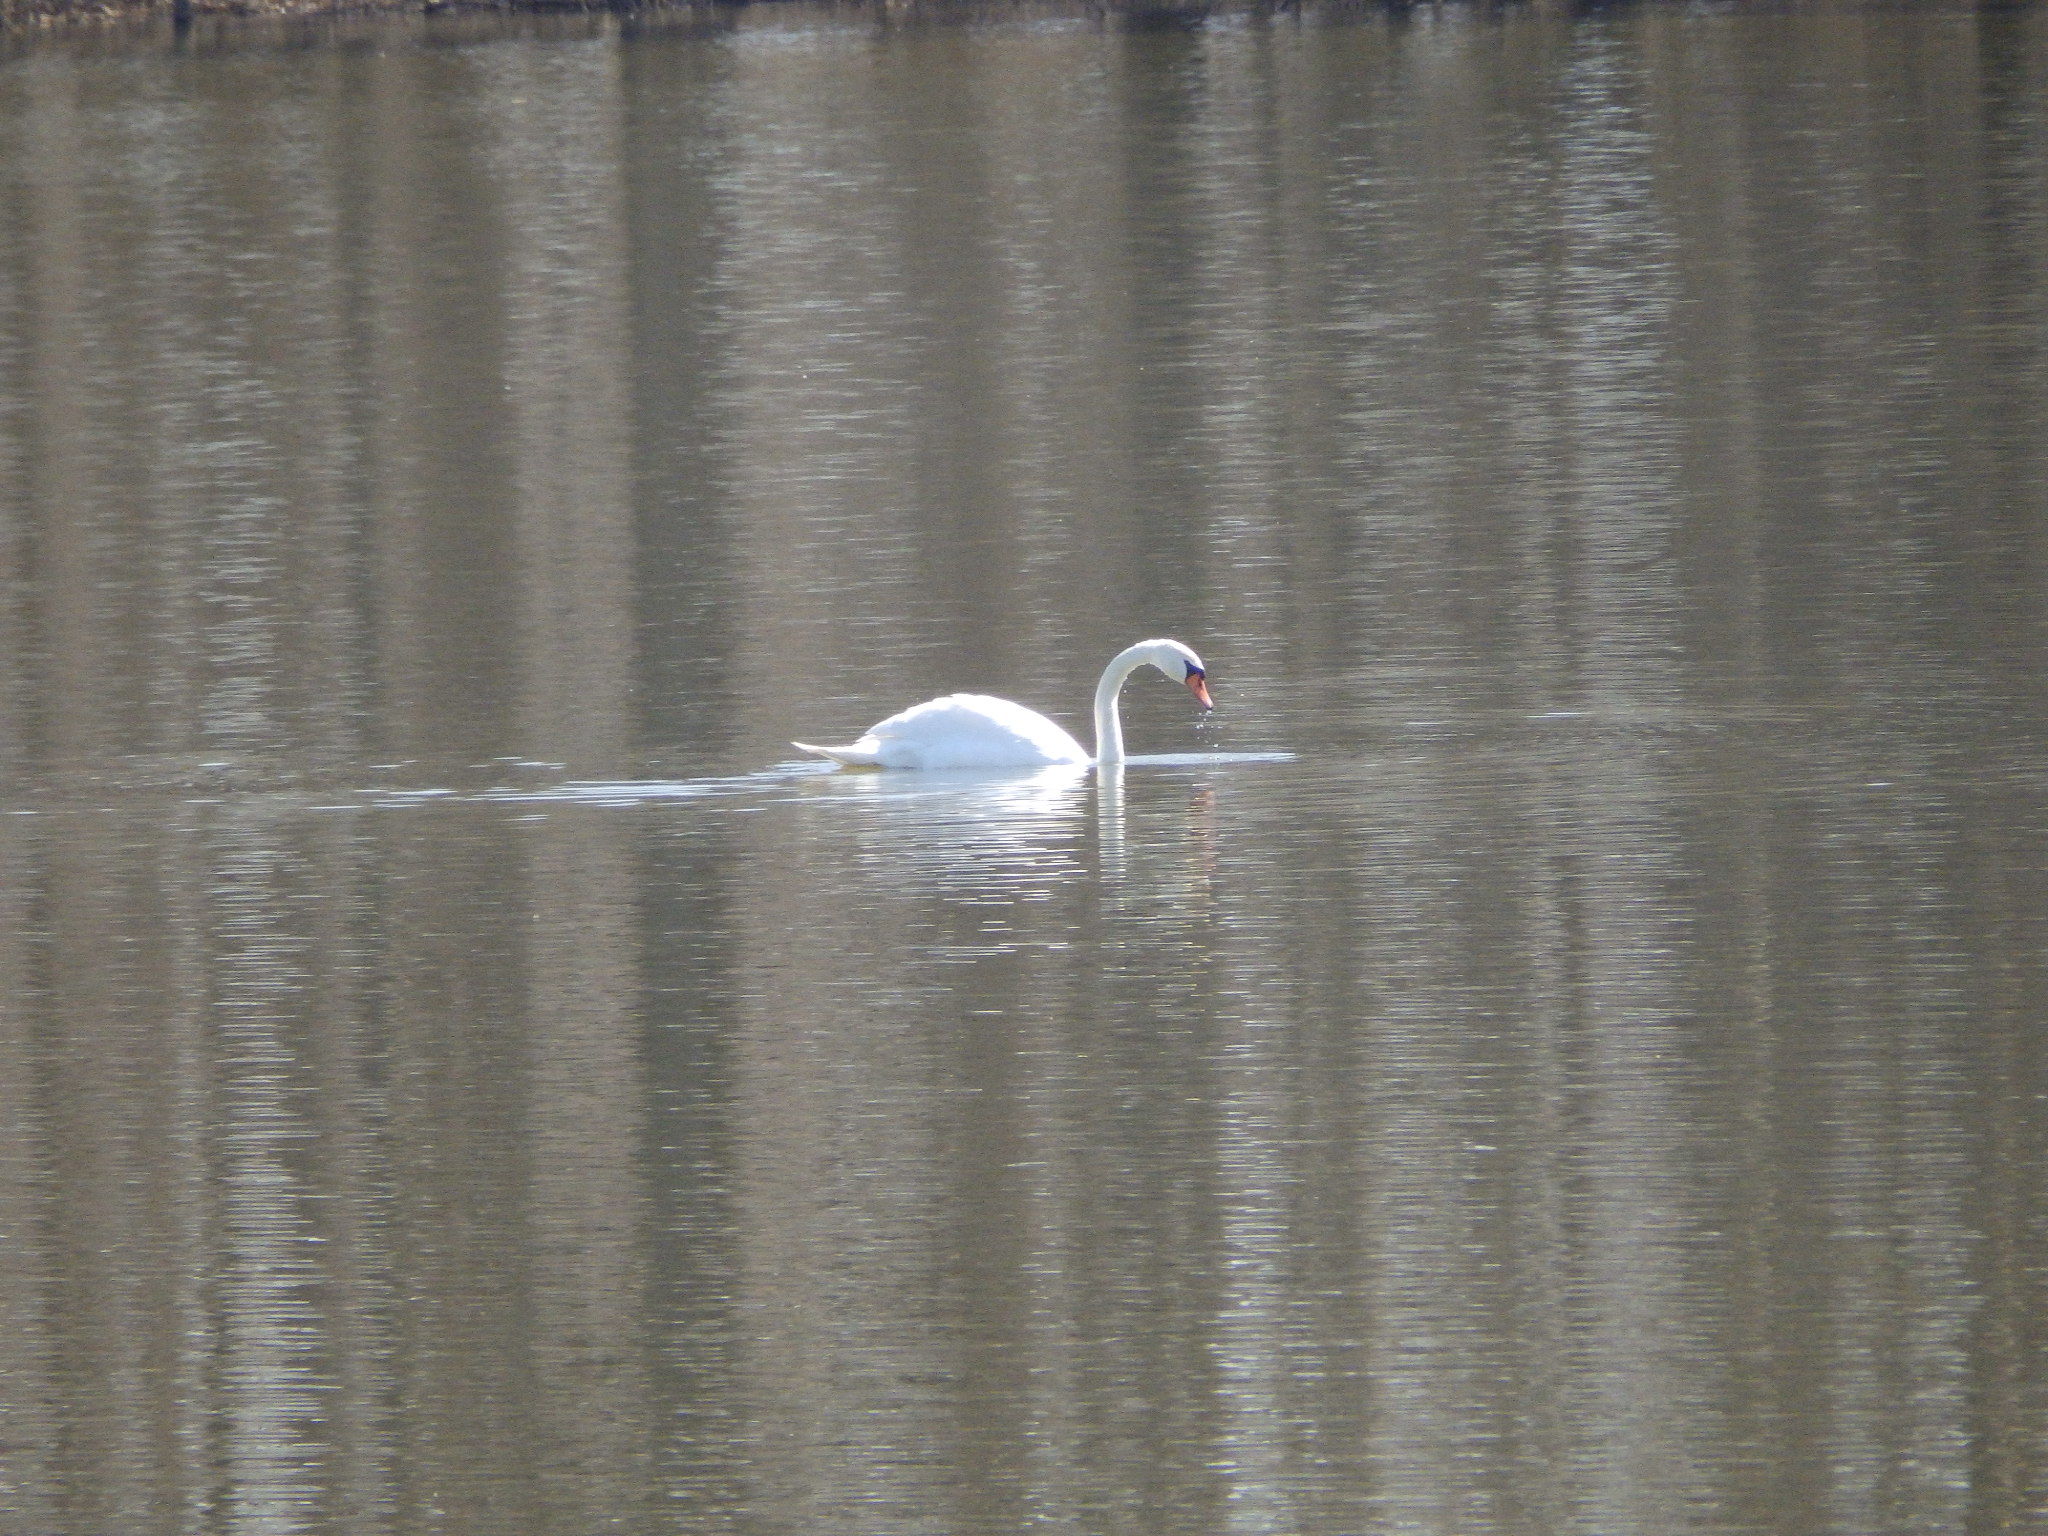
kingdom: Animalia
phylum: Chordata
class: Aves
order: Anseriformes
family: Anatidae
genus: Cygnus
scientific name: Cygnus olor
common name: Mute swan
